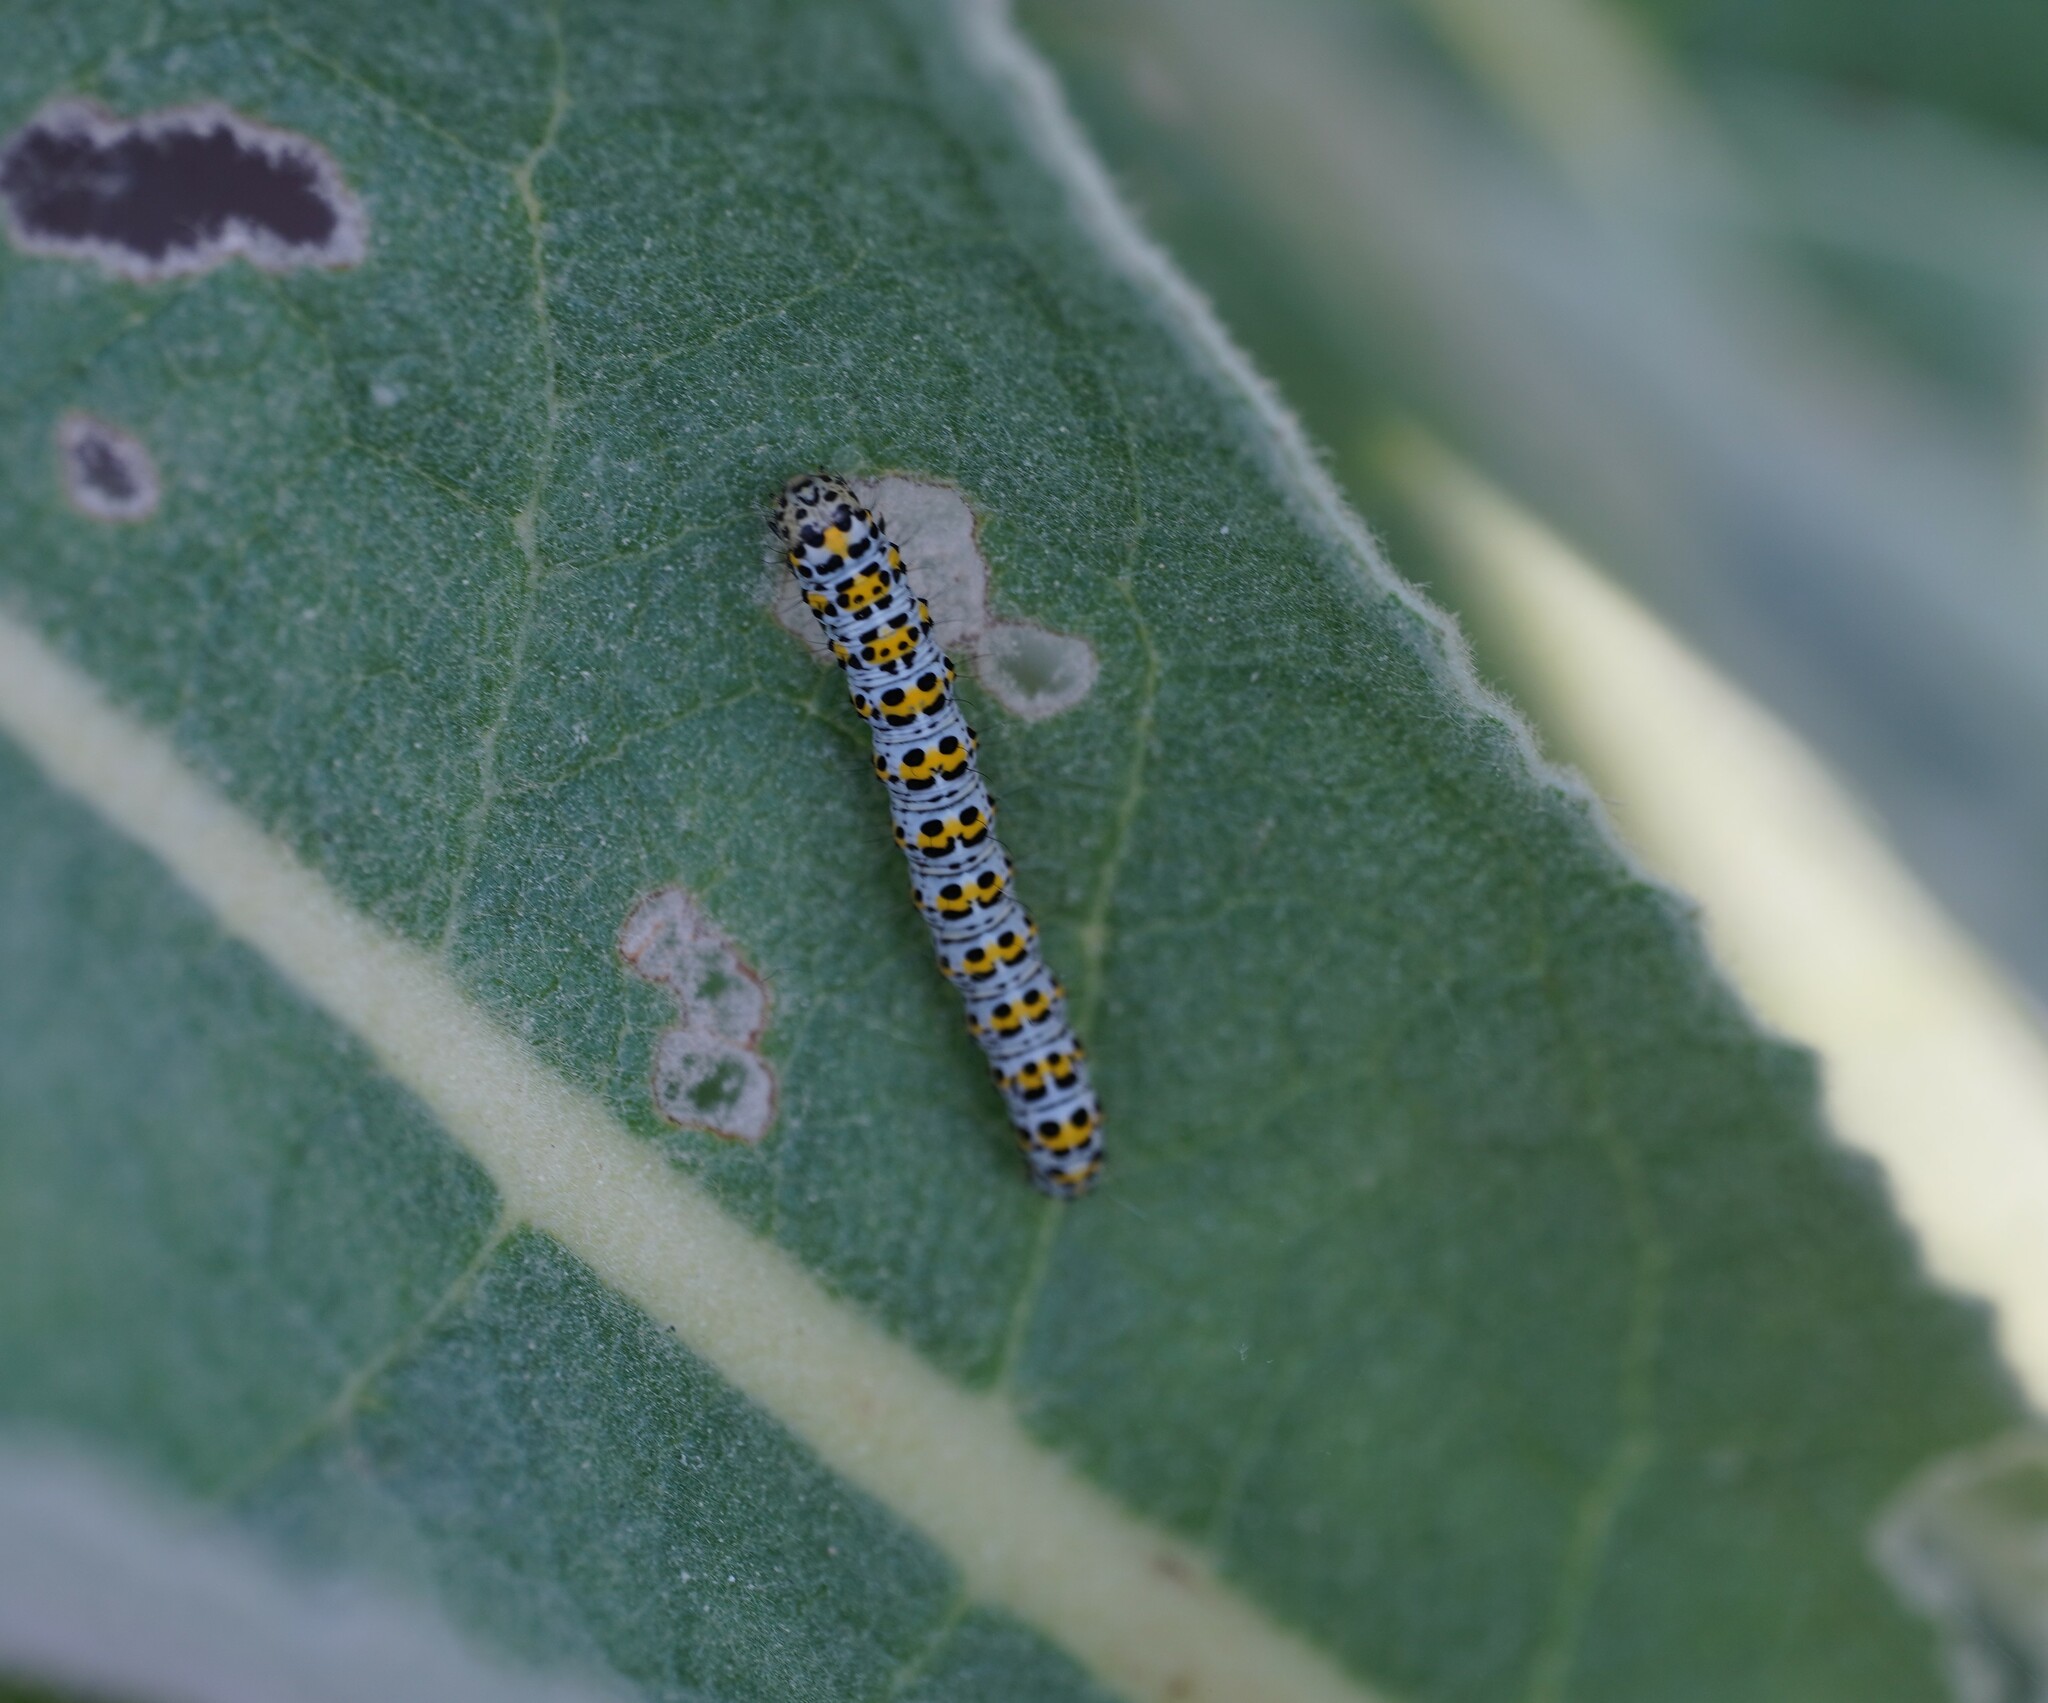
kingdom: Animalia
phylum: Arthropoda
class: Insecta
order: Lepidoptera
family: Noctuidae
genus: Cucullia
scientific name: Cucullia verbasci
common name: Mullein
